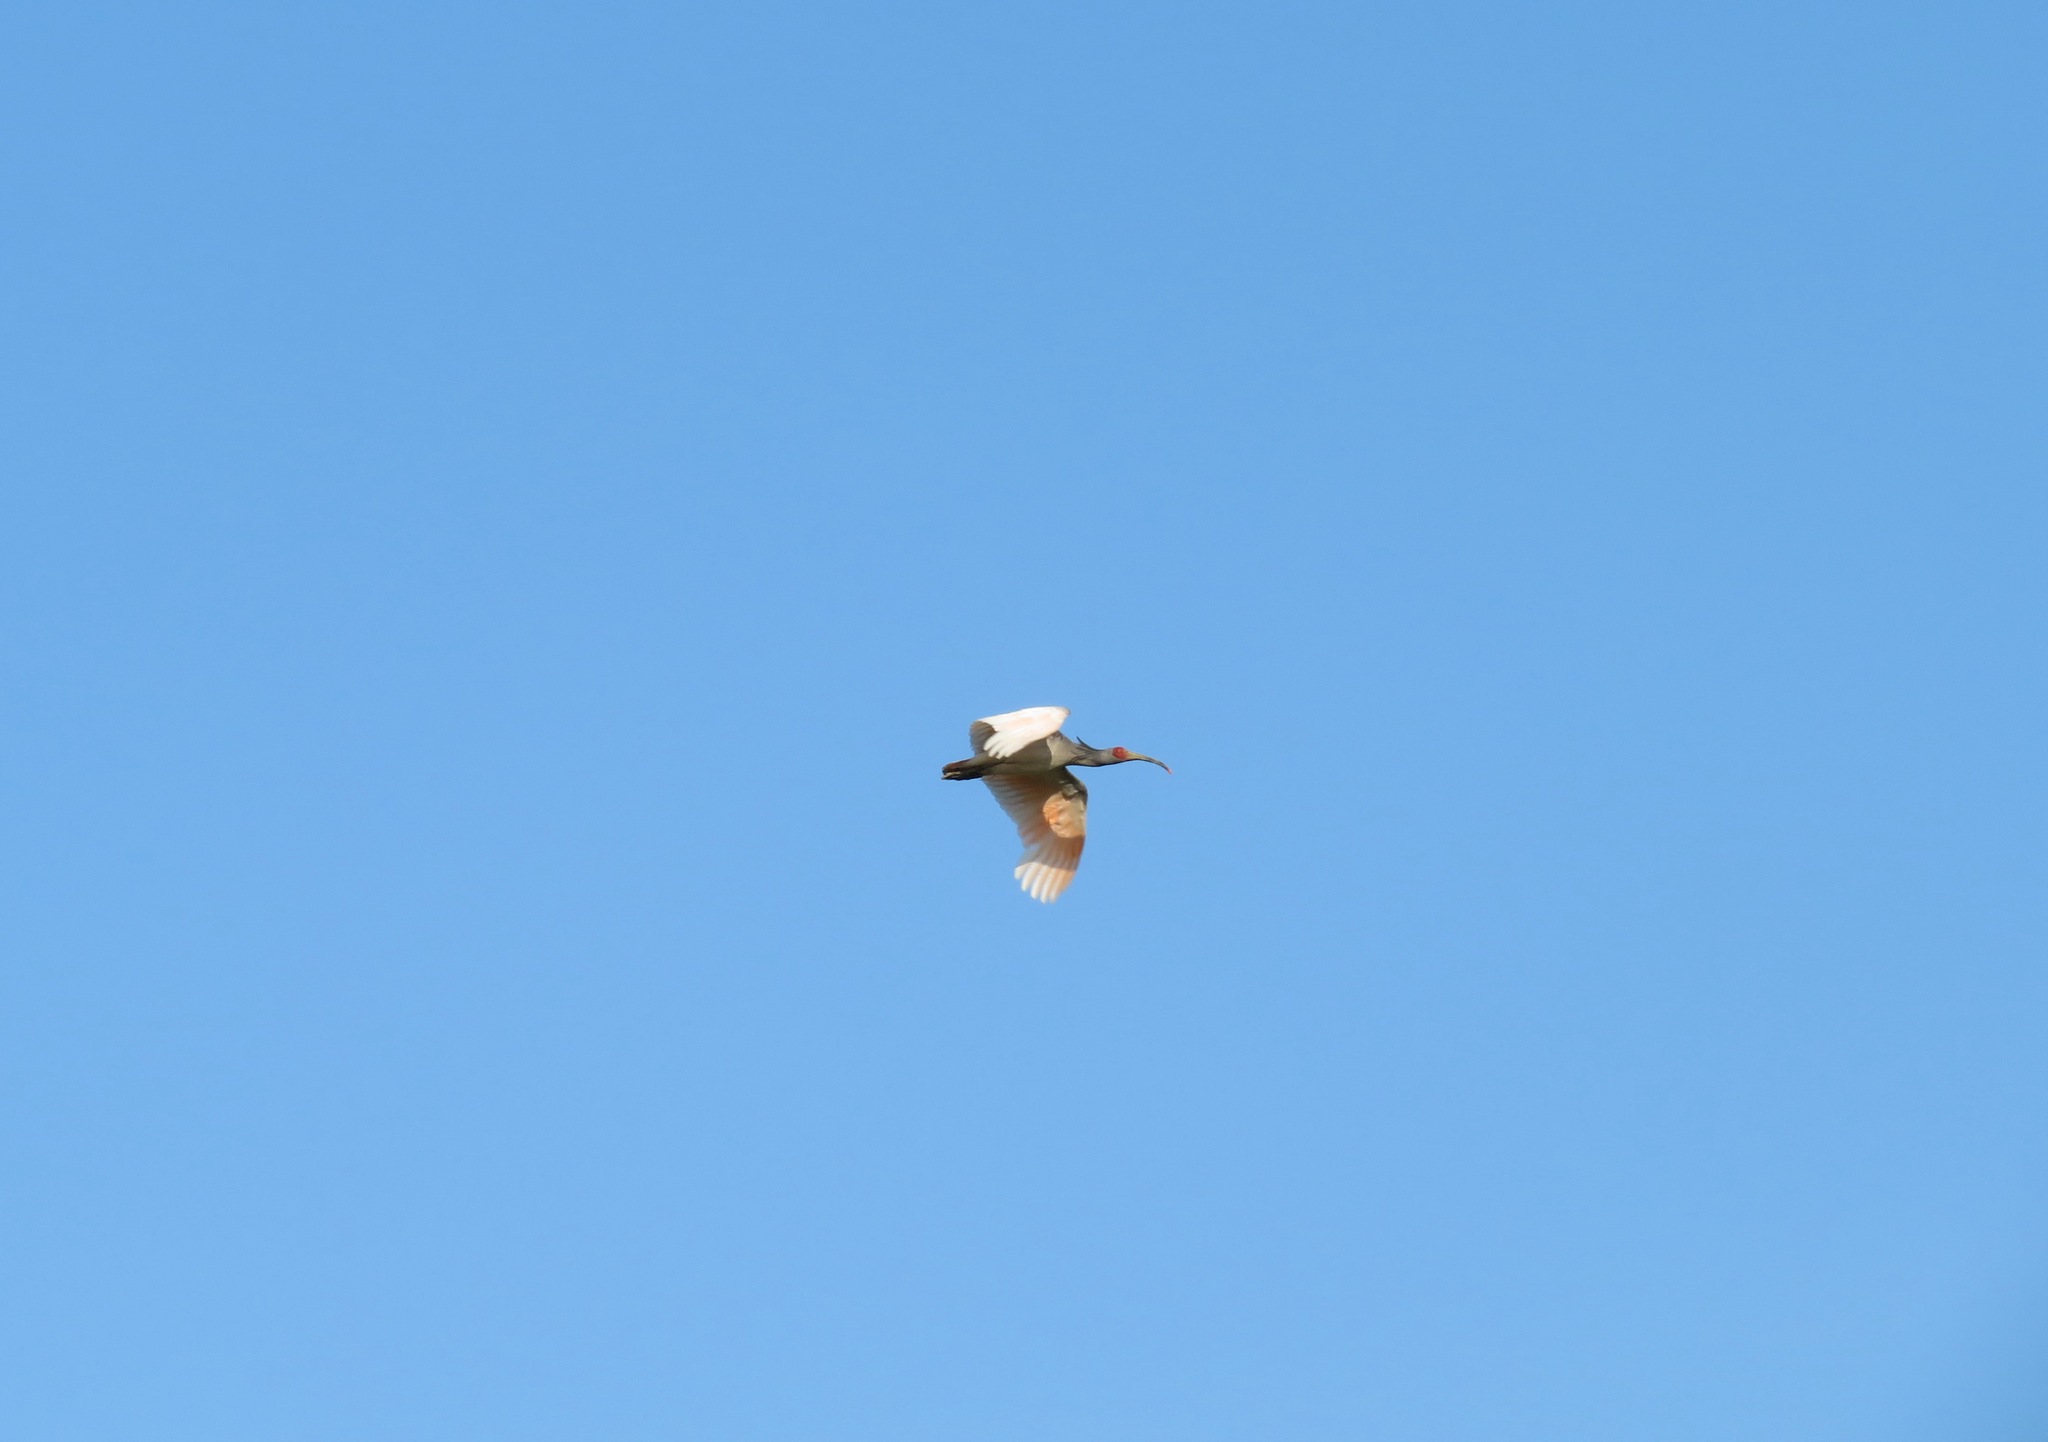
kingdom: Animalia
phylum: Chordata
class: Aves
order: Pelecaniformes
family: Threskiornithidae
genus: Nipponia
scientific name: Nipponia nippon
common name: Crested ibis
